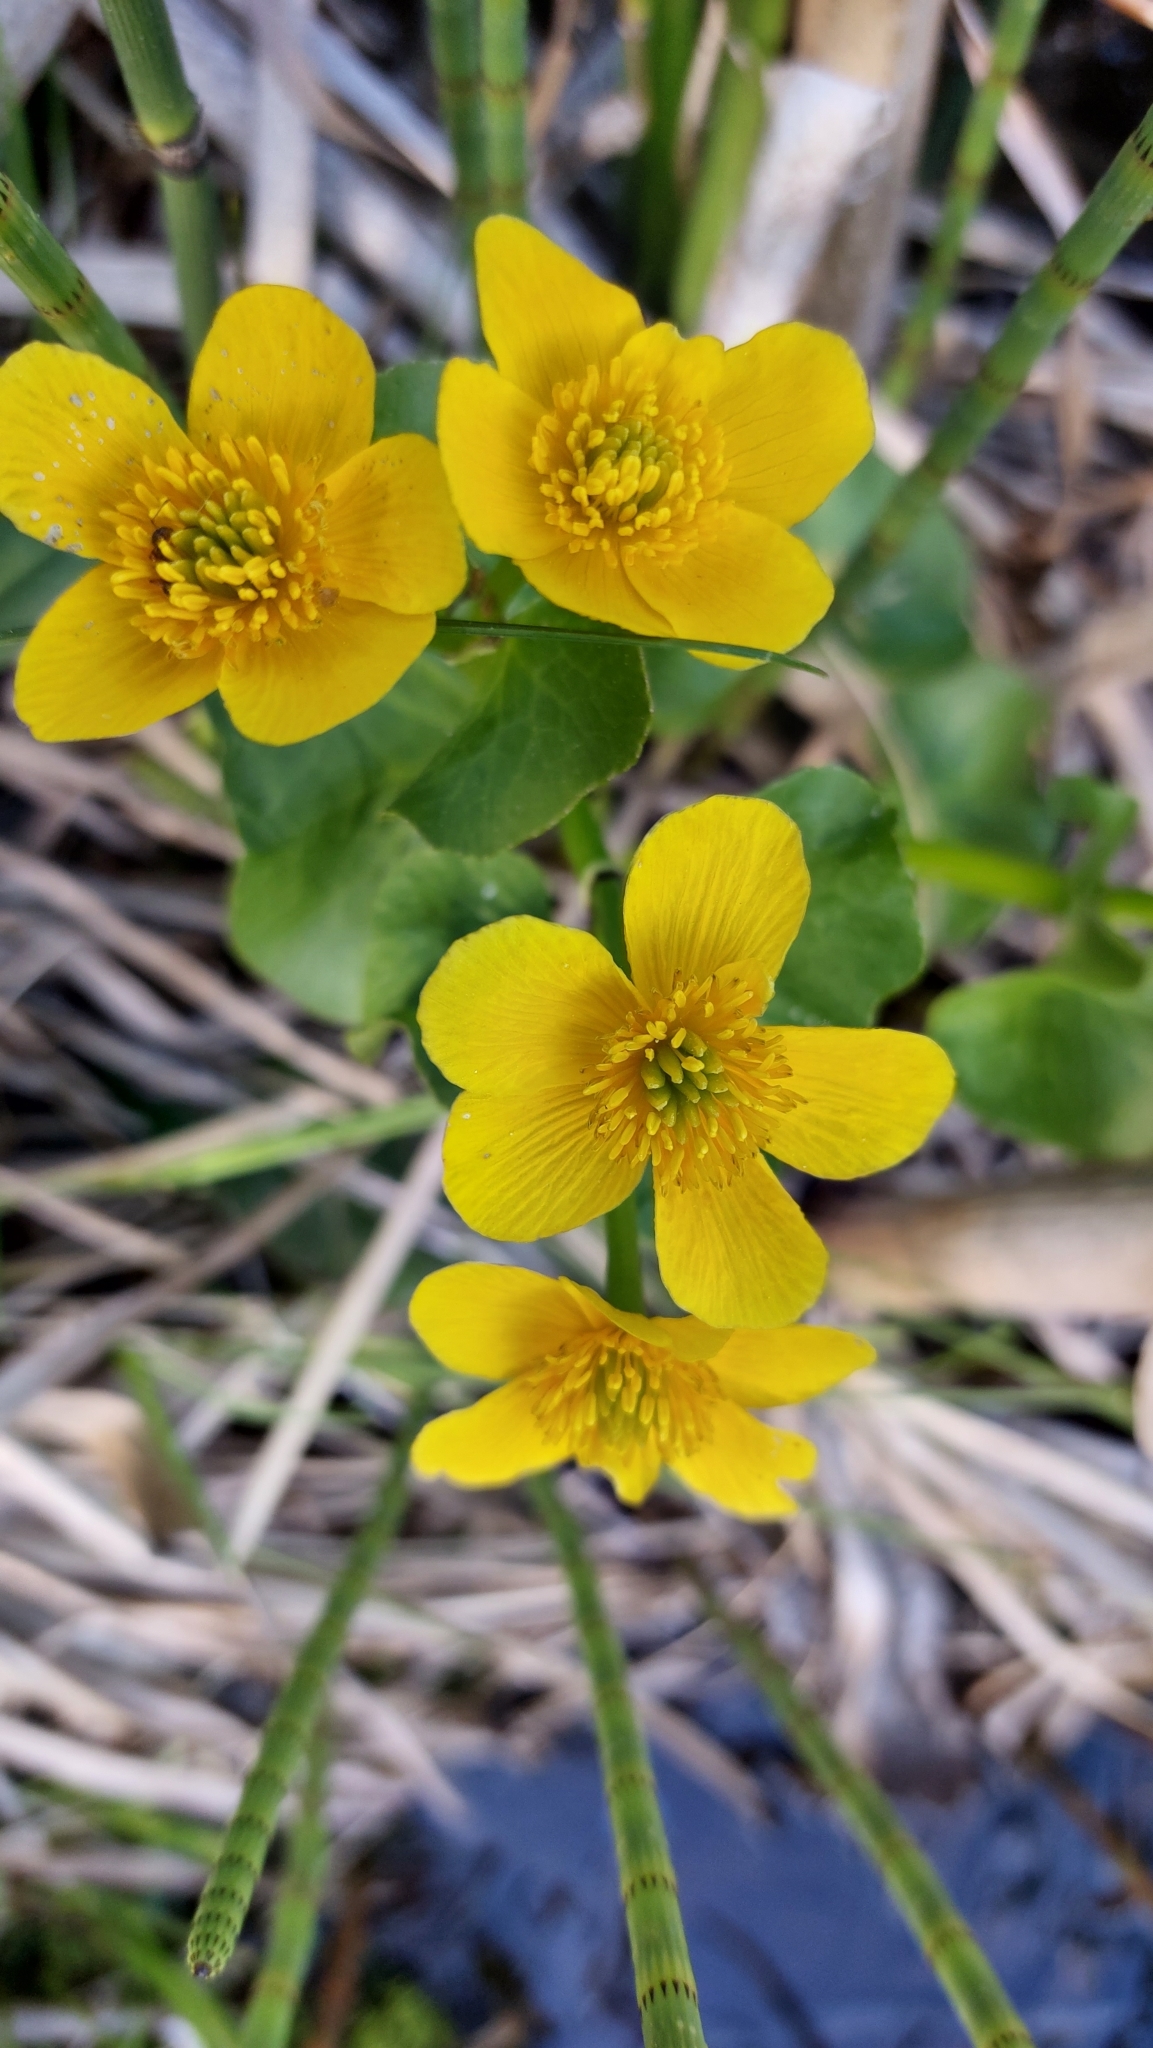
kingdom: Plantae
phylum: Tracheophyta
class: Magnoliopsida
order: Ranunculales
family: Ranunculaceae
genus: Caltha
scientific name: Caltha palustris
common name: Marsh marigold
